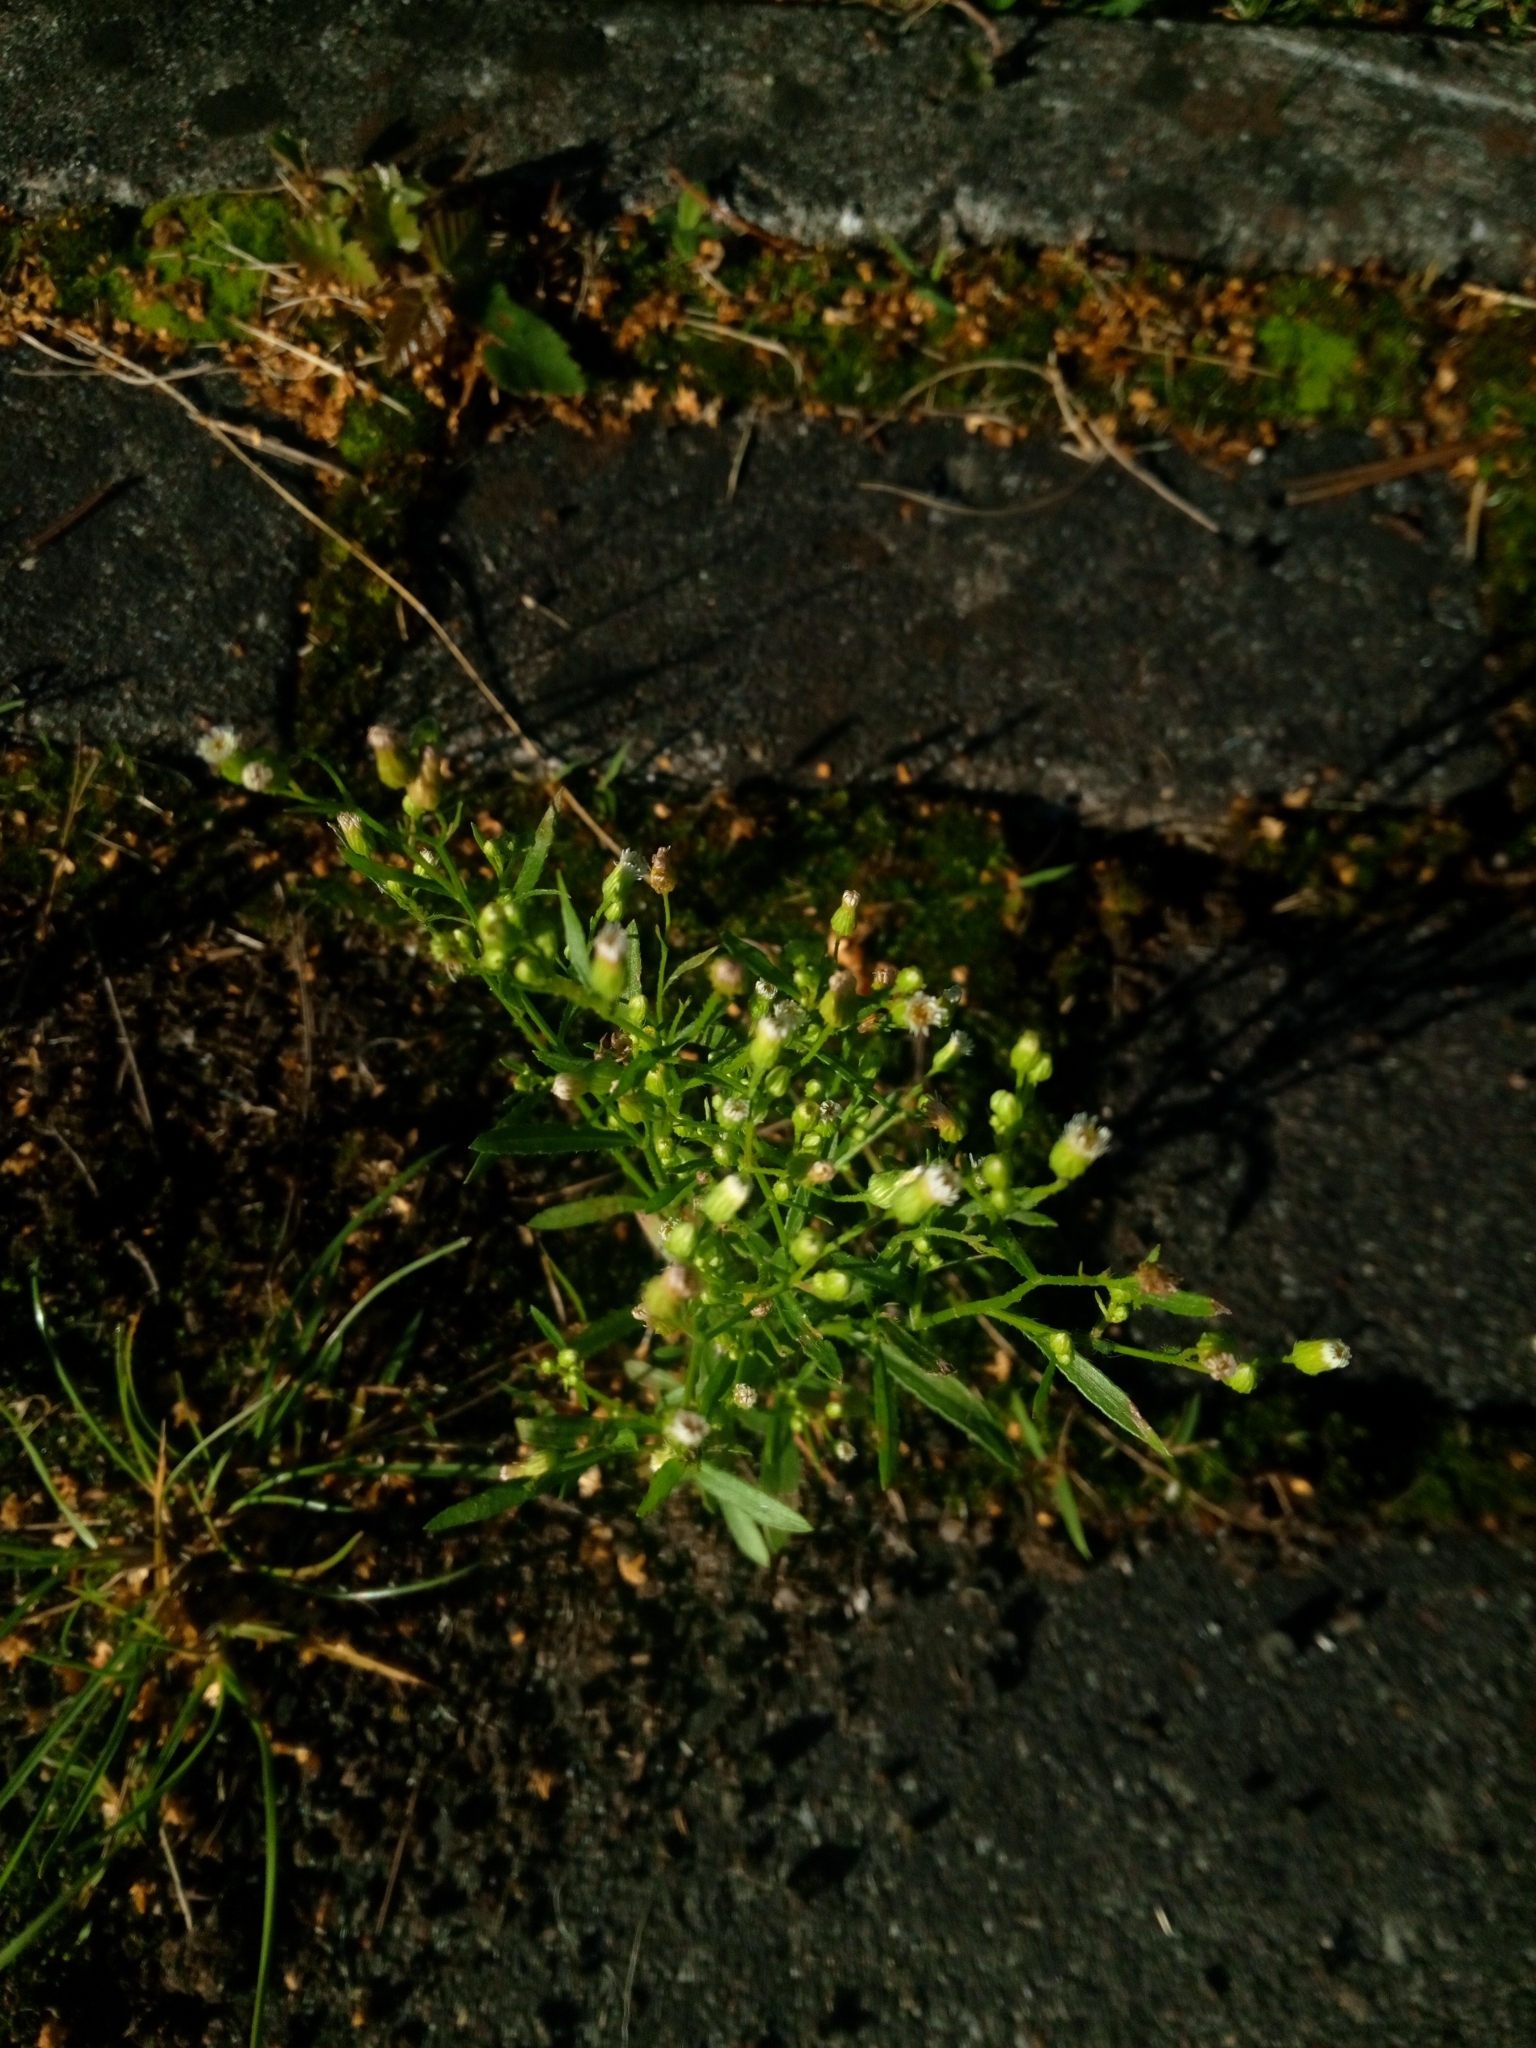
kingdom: Plantae
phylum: Tracheophyta
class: Magnoliopsida
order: Asterales
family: Asteraceae
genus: Erigeron
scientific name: Erigeron canadensis
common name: Canadian fleabane
